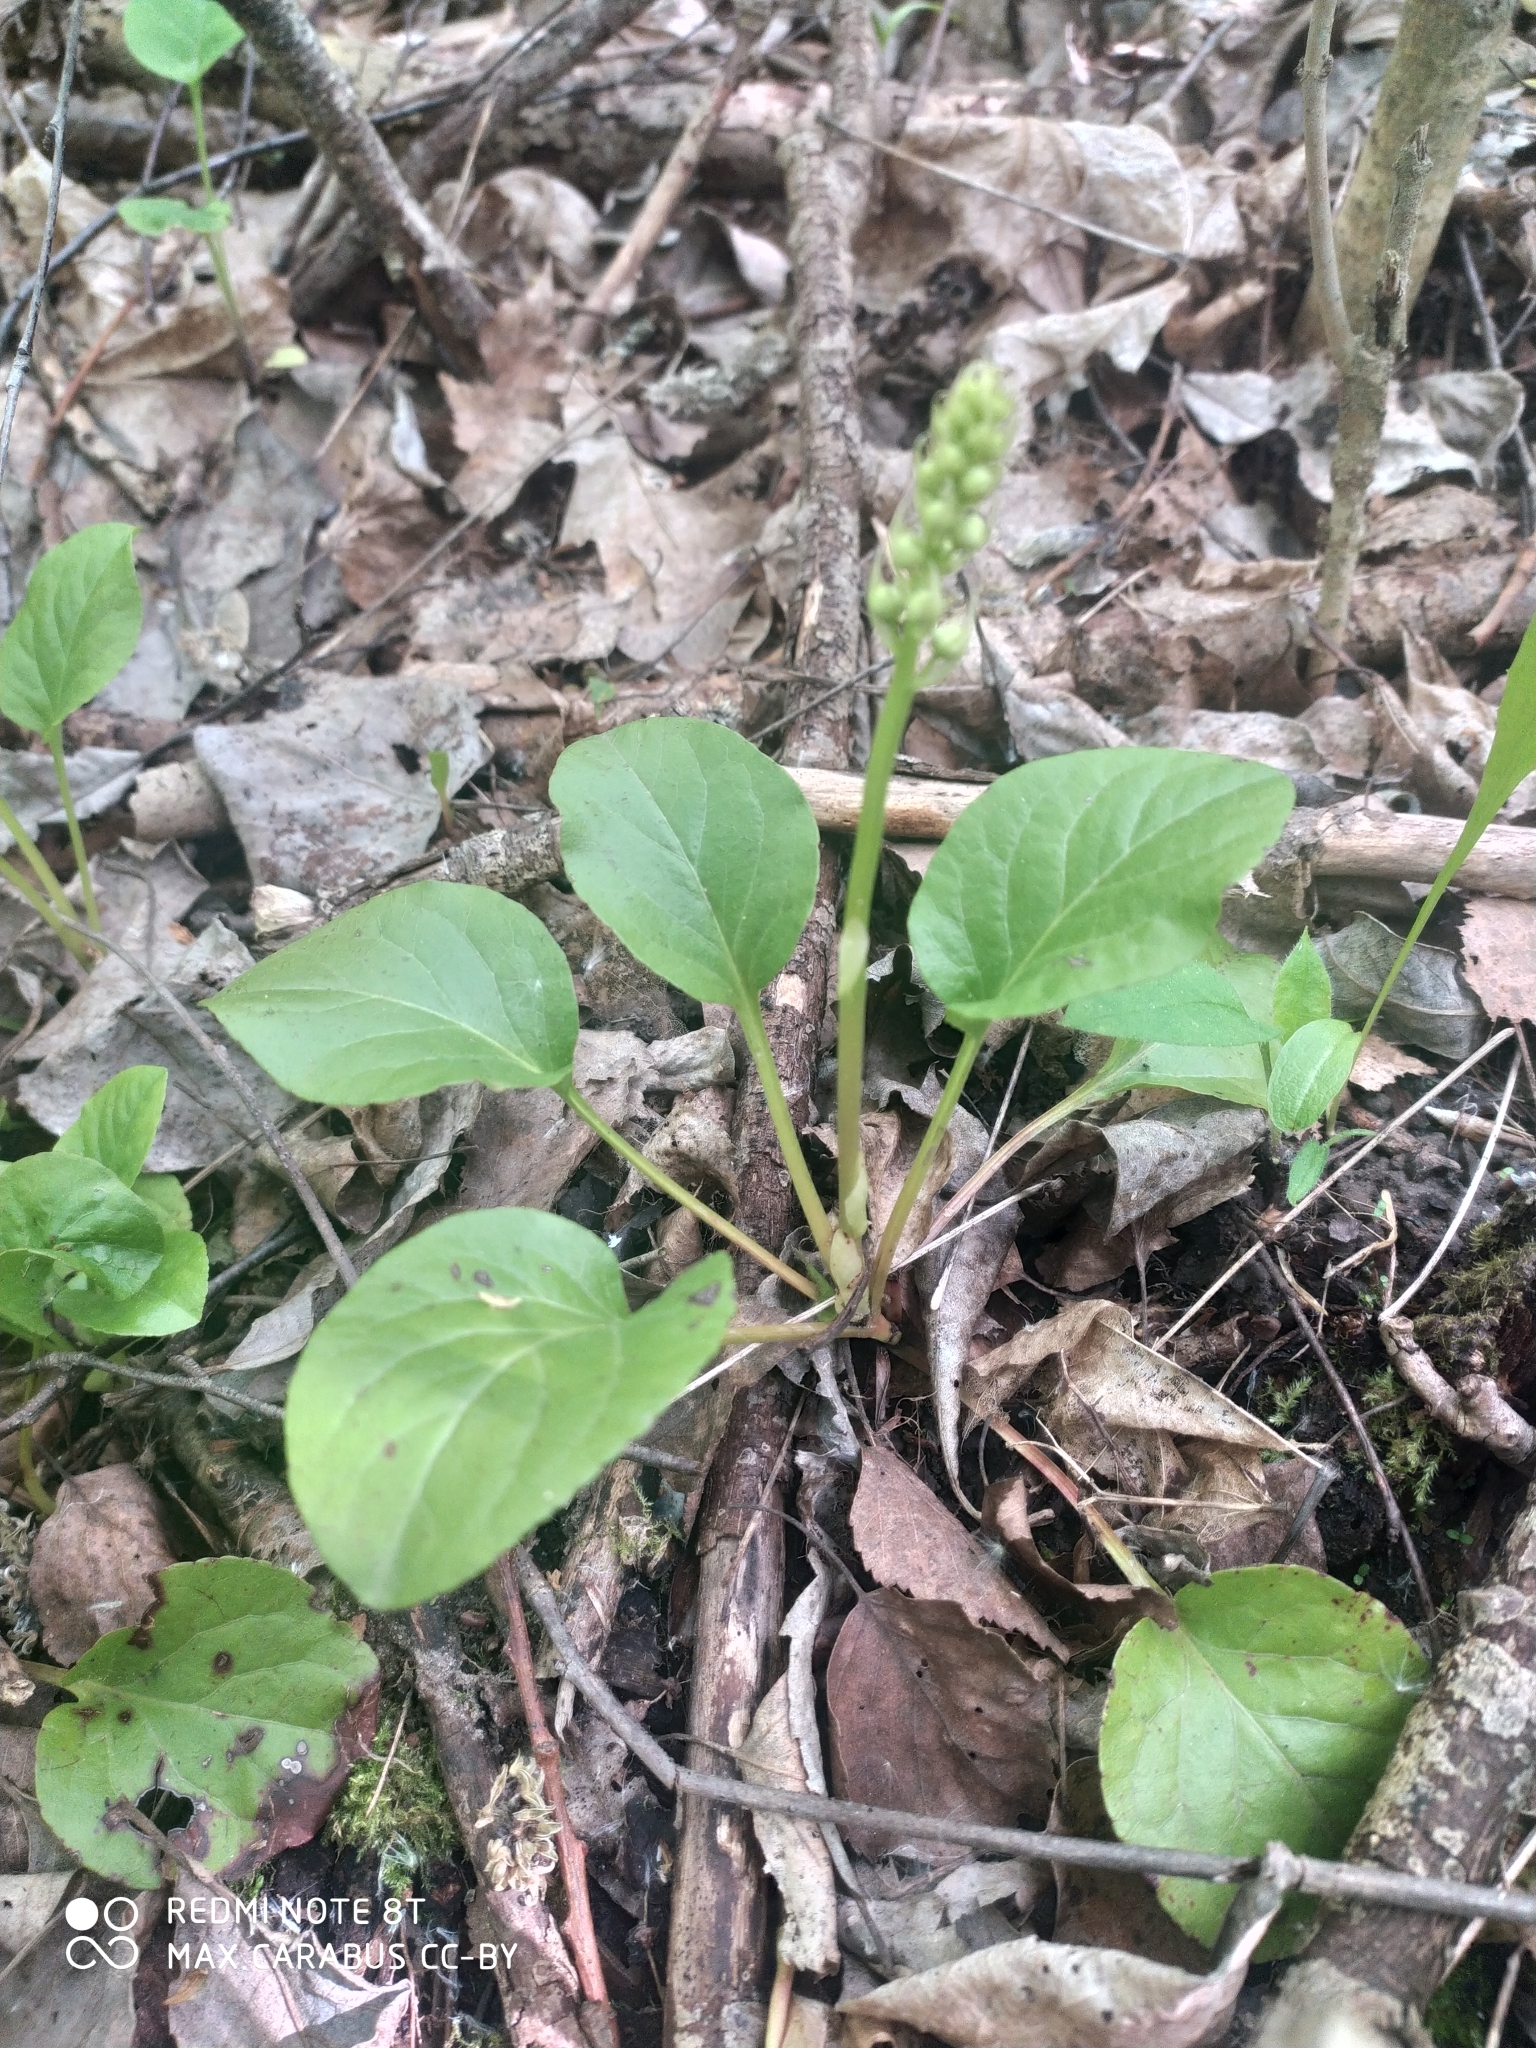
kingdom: Plantae
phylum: Tracheophyta
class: Magnoliopsida
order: Ericales
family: Ericaceae
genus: Pyrola
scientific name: Pyrola rotundifolia
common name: Round-leaved wintergreen
